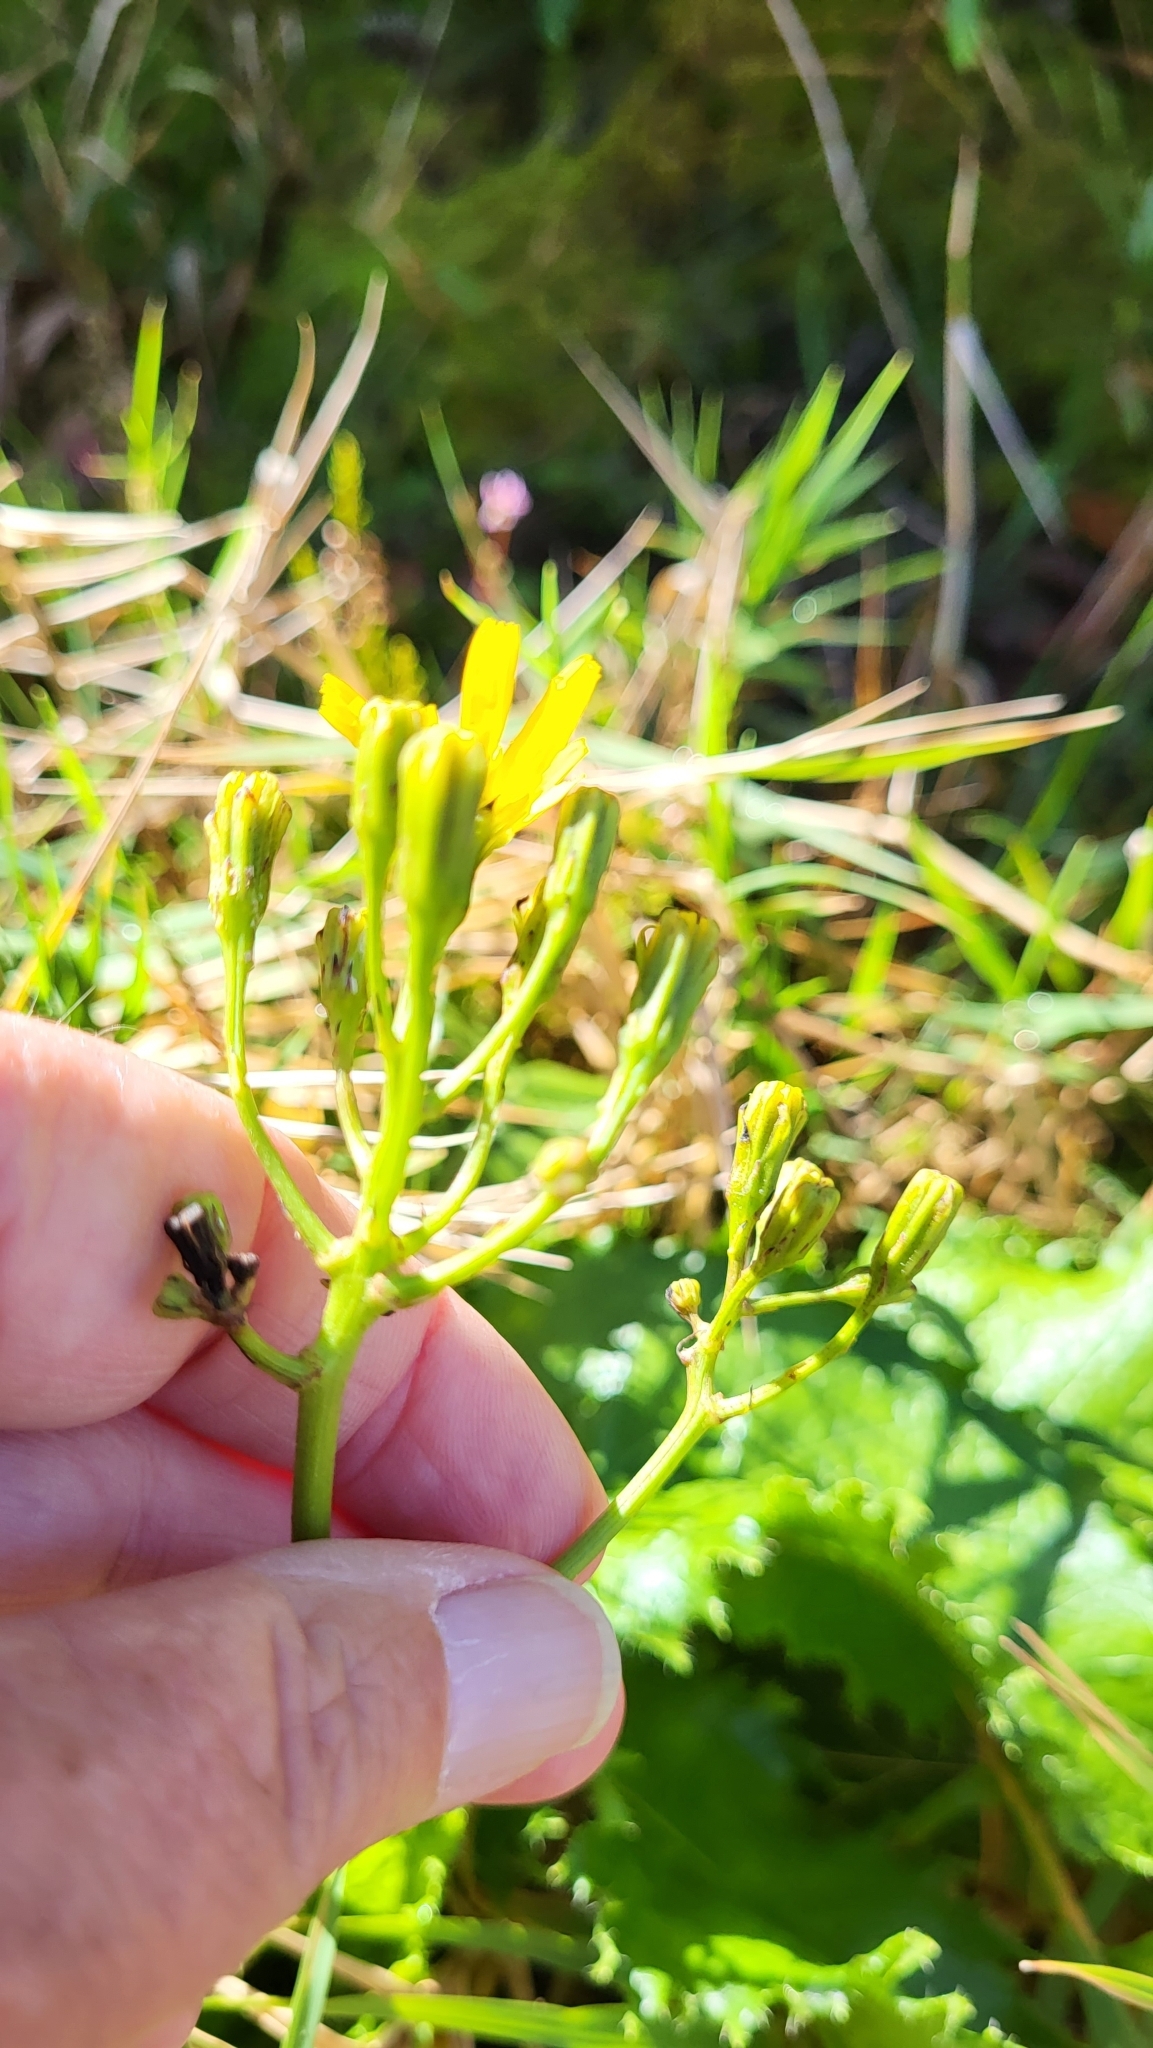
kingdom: Plantae
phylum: Tracheophyta
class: Magnoliopsida
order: Asterales
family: Asteraceae
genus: Leontodon
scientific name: Leontodon rigens
